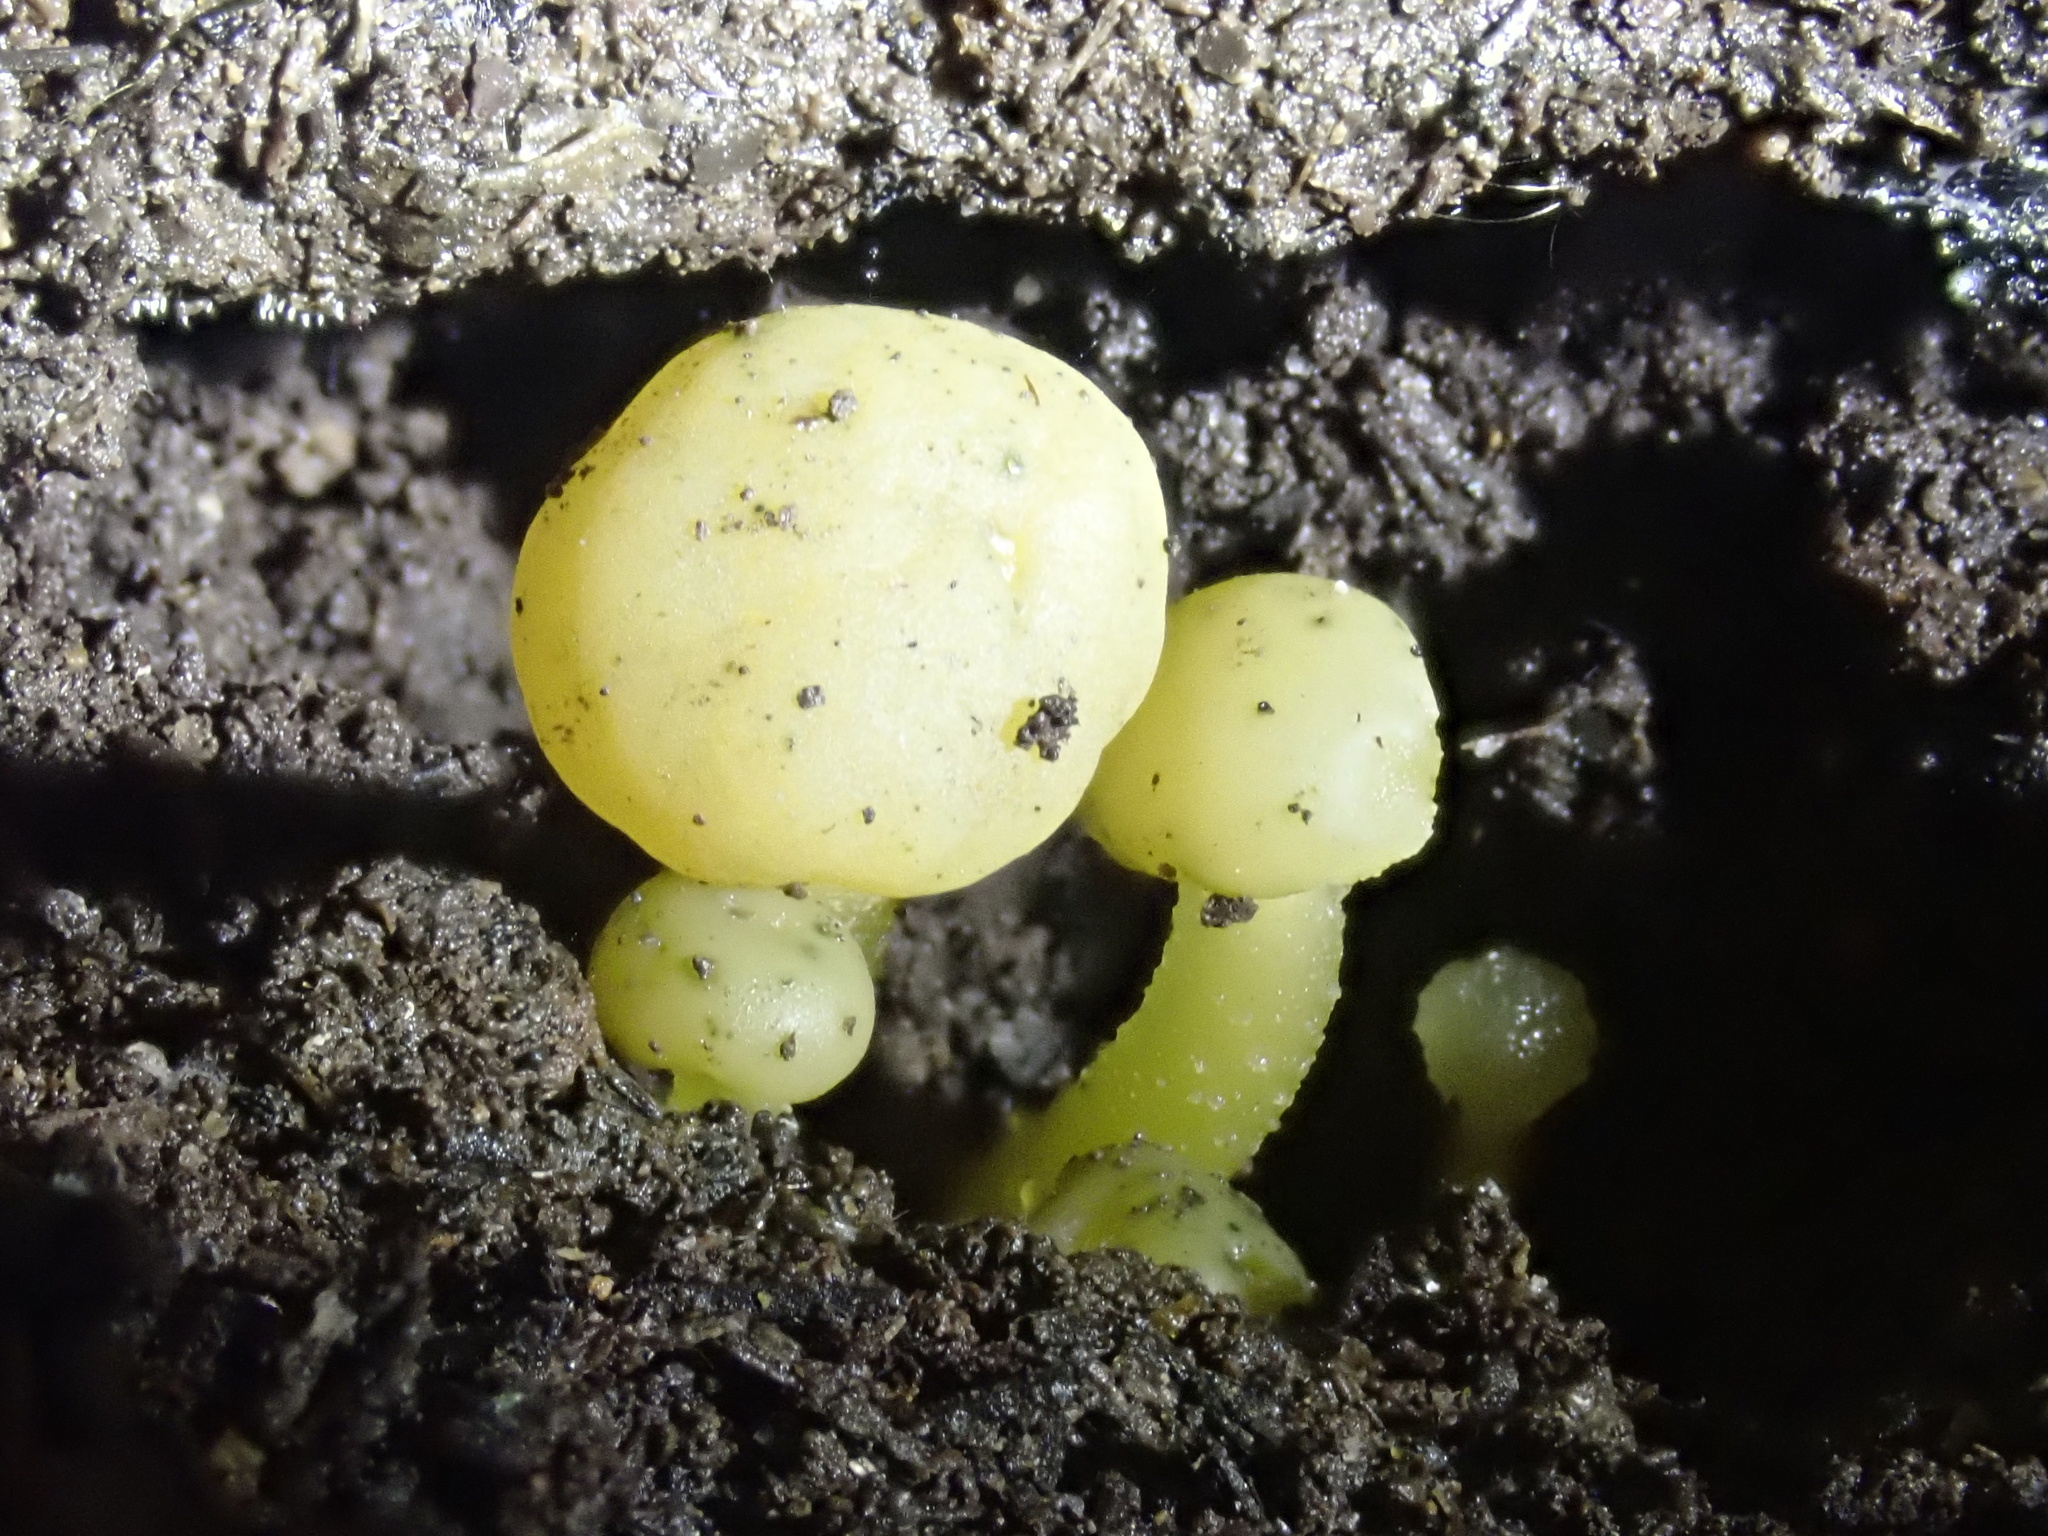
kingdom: Fungi
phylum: Ascomycota
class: Leotiomycetes
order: Leotiales
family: Leotiaceae
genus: Leotia
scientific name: Leotia lubrica
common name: Jellybaby
